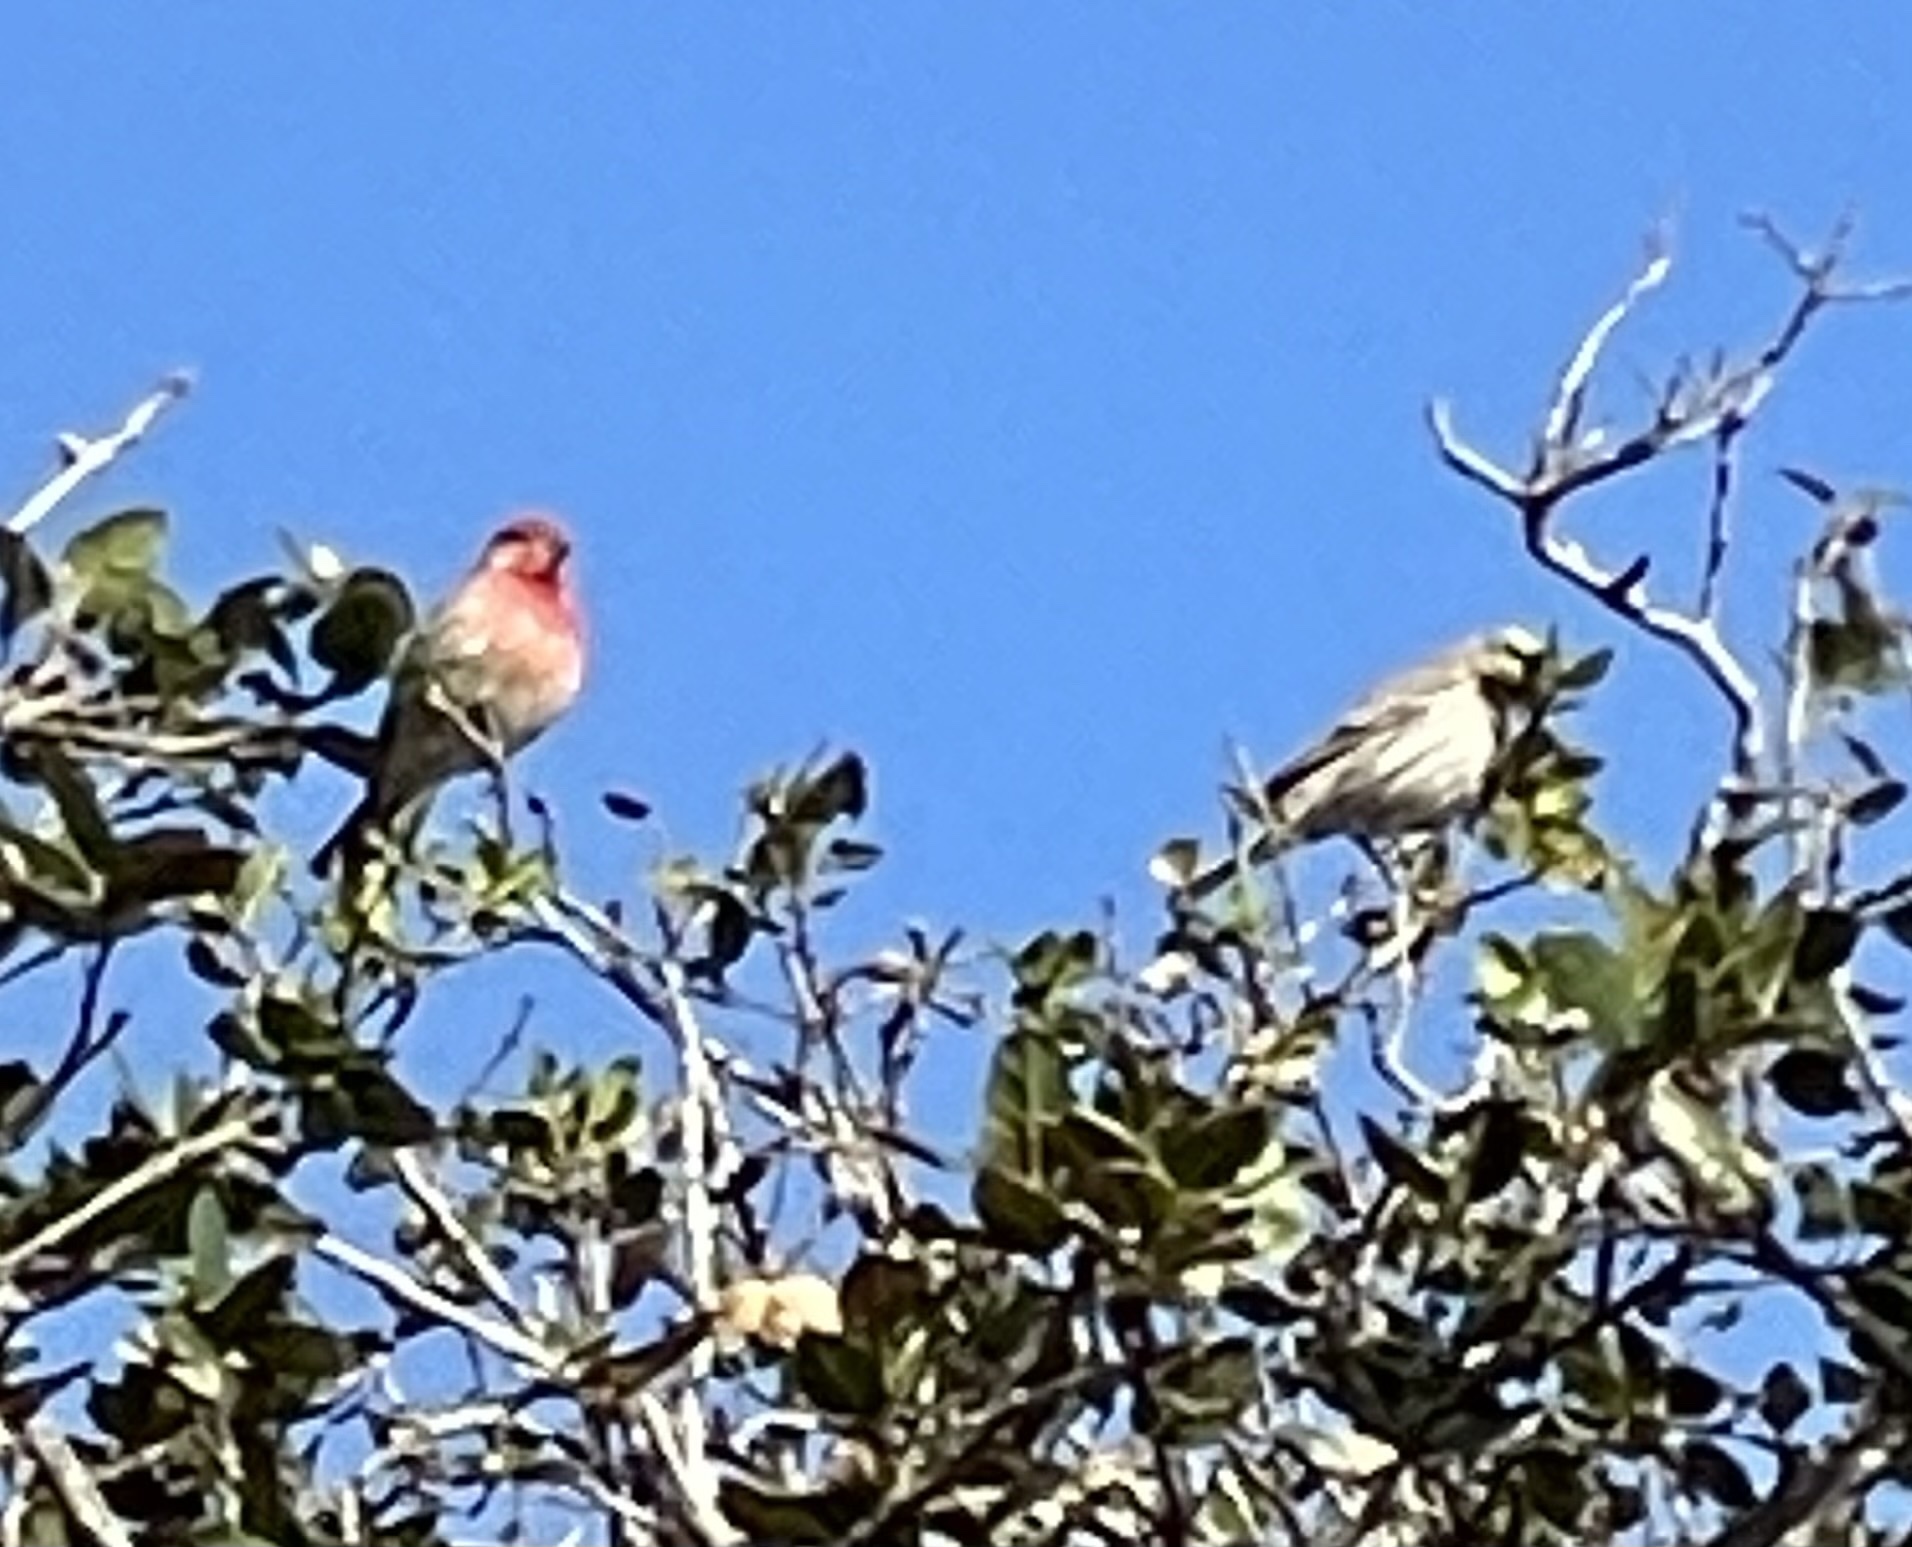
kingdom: Animalia
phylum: Chordata
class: Aves
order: Passeriformes
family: Fringillidae
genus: Haemorhous
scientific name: Haemorhous mexicanus
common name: House finch
